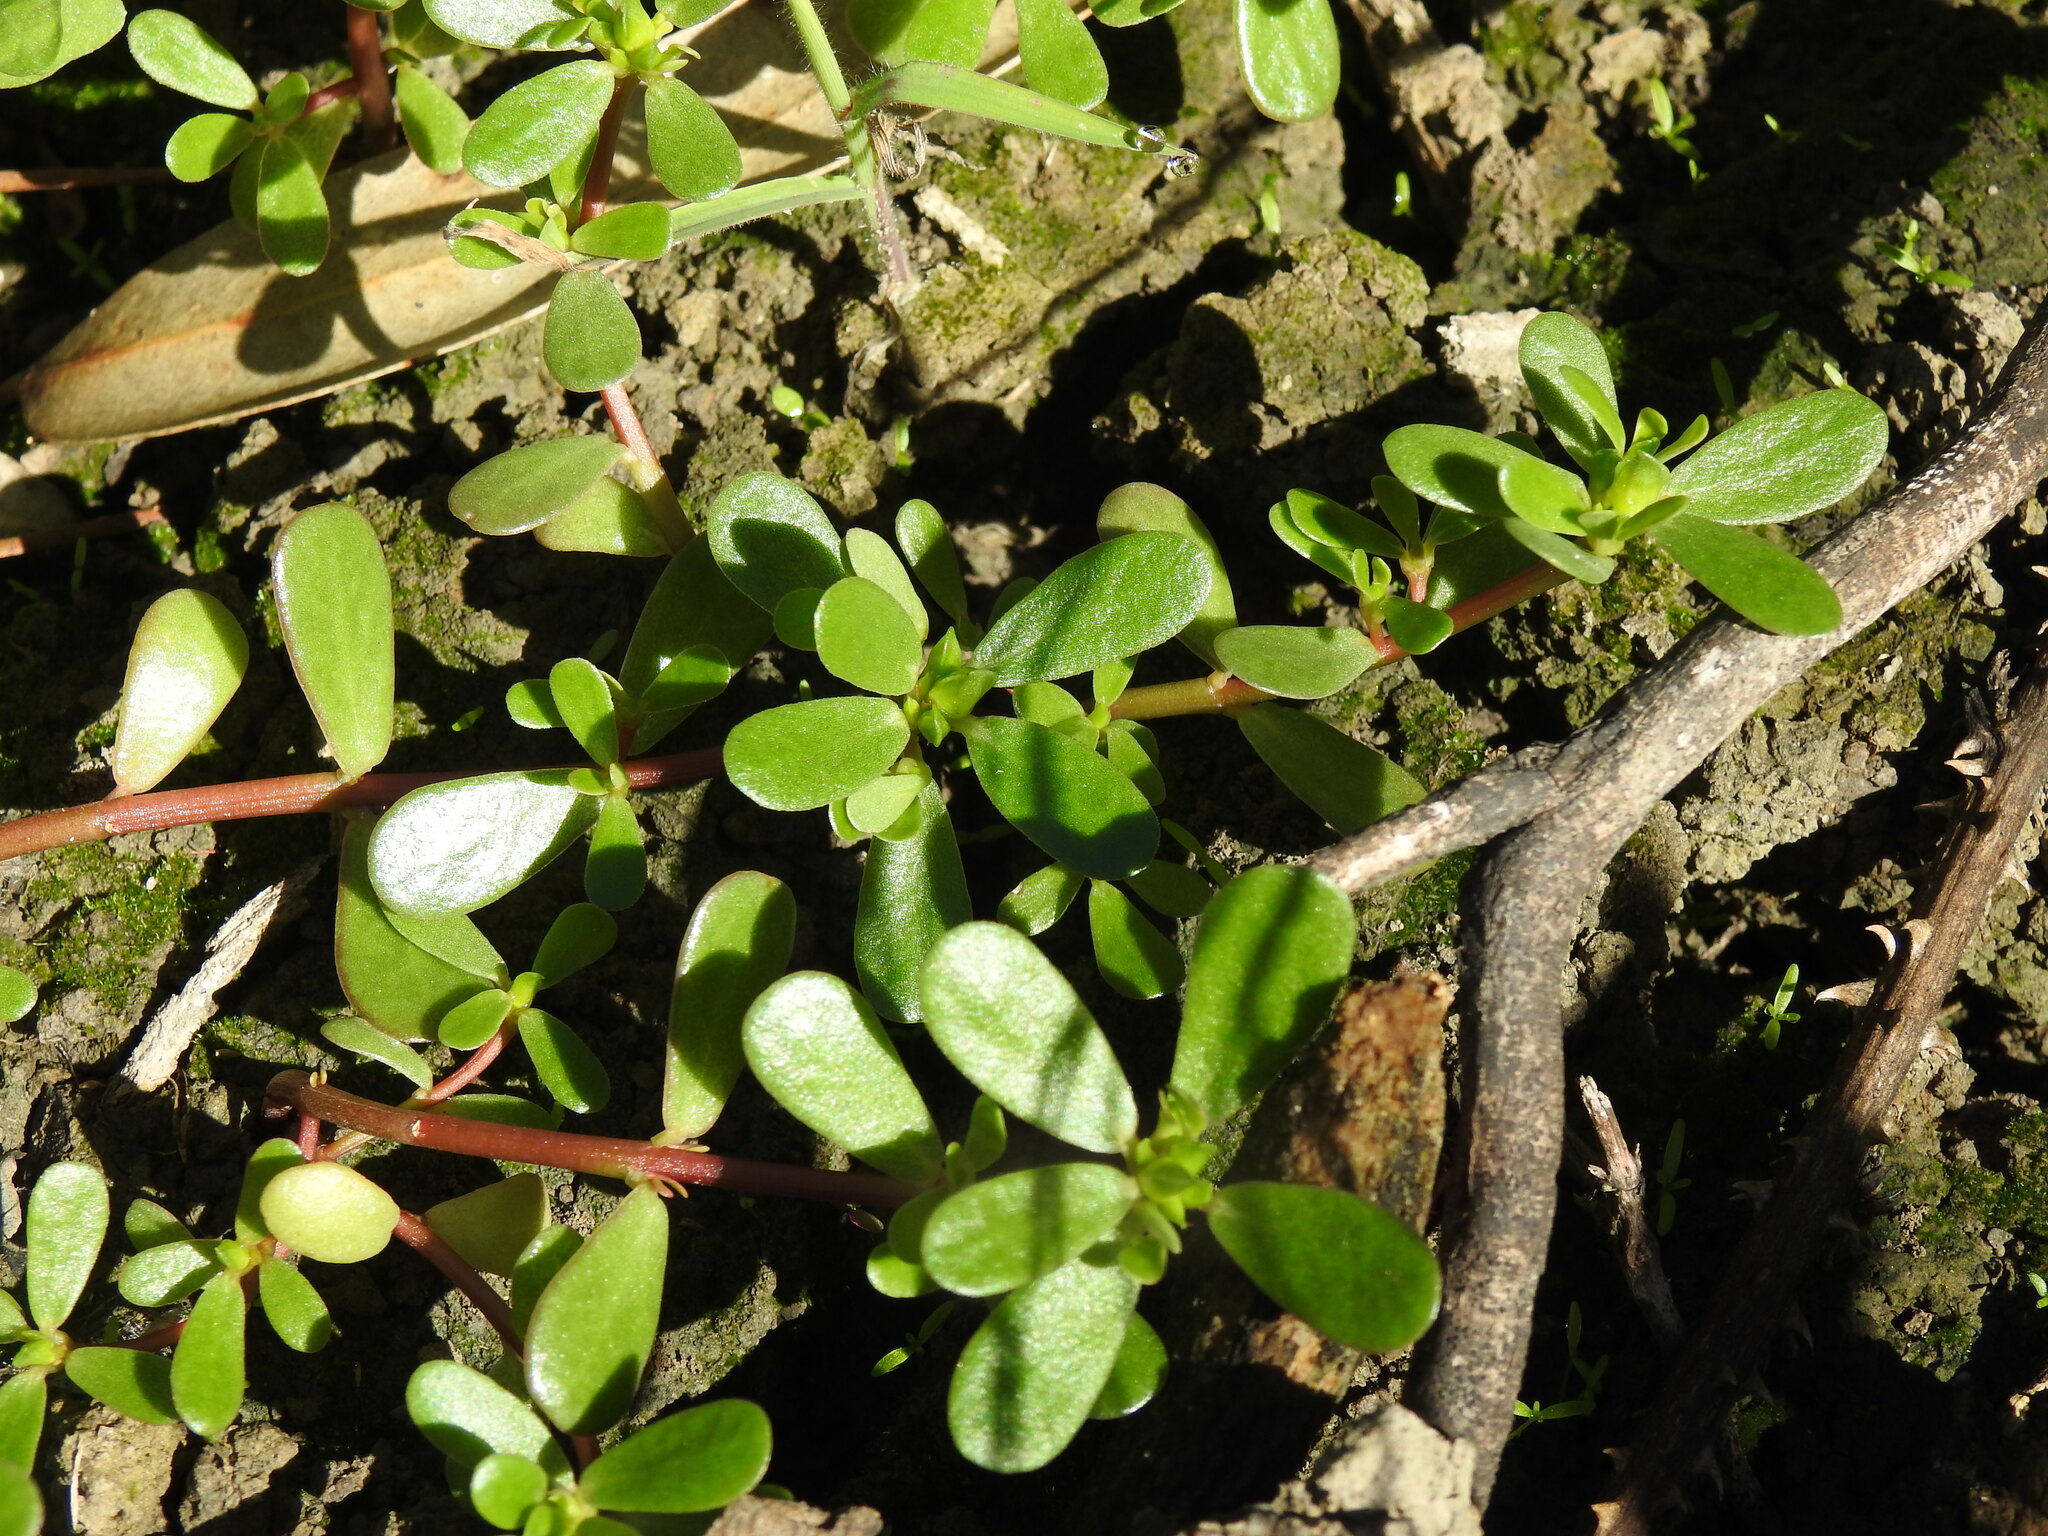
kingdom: Plantae
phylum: Tracheophyta
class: Magnoliopsida
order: Caryophyllales
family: Portulacaceae
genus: Portulaca
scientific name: Portulaca oleracea
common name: Common purslane
